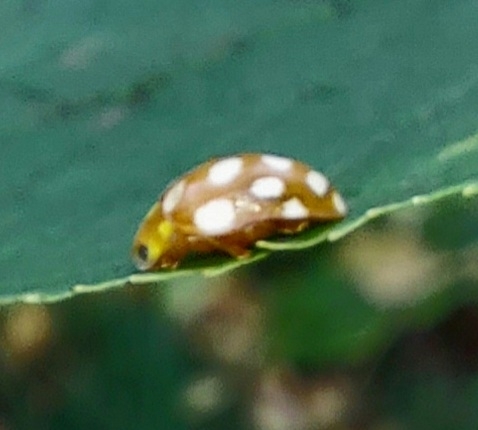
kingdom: Animalia
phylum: Arthropoda
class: Insecta
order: Coleoptera
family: Coccinellidae
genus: Halyzia
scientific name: Halyzia sedecimguttata
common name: Orange ladybird
